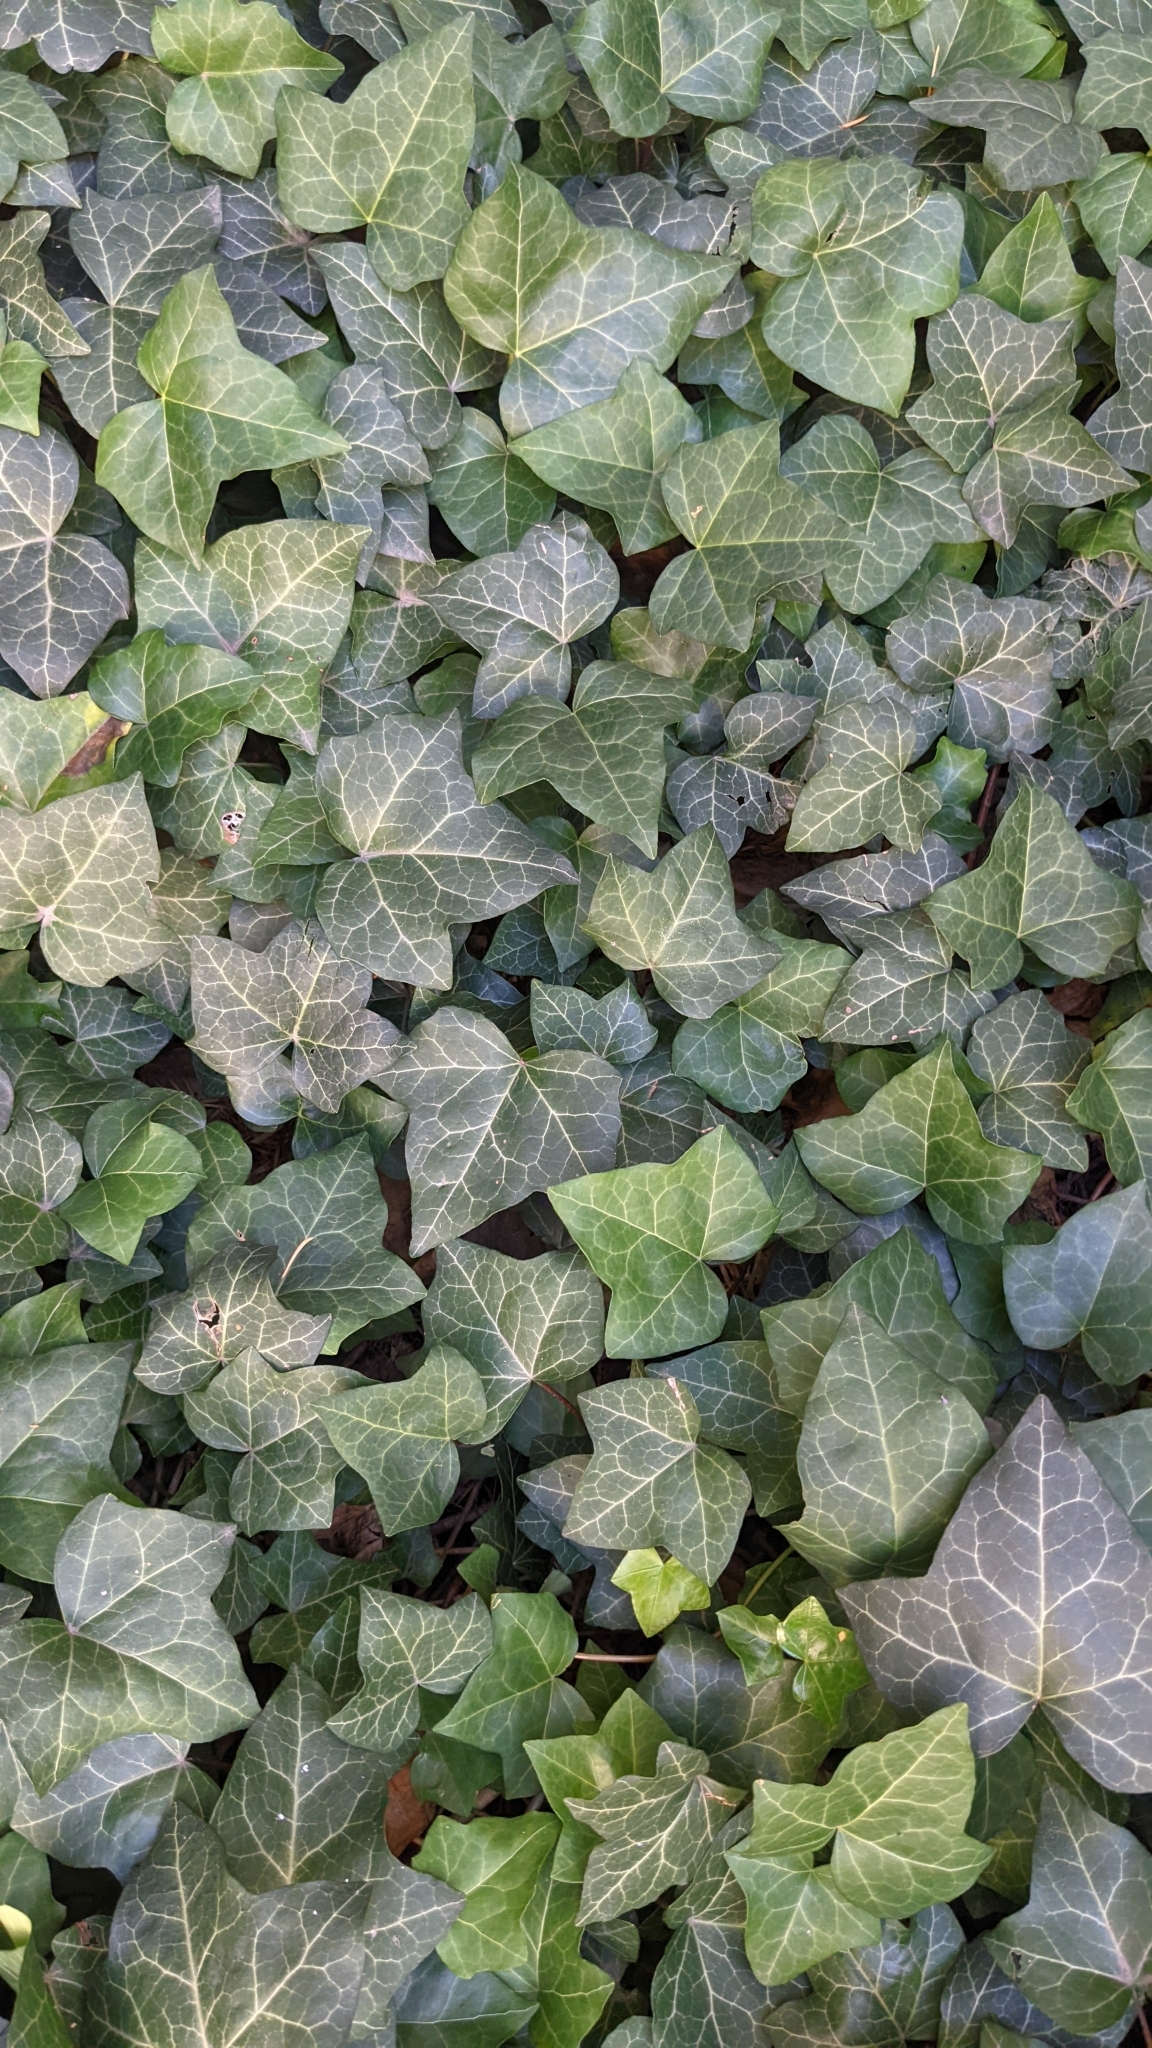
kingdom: Plantae
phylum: Tracheophyta
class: Magnoliopsida
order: Apiales
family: Araliaceae
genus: Hedera
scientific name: Hedera helix
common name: Ivy
